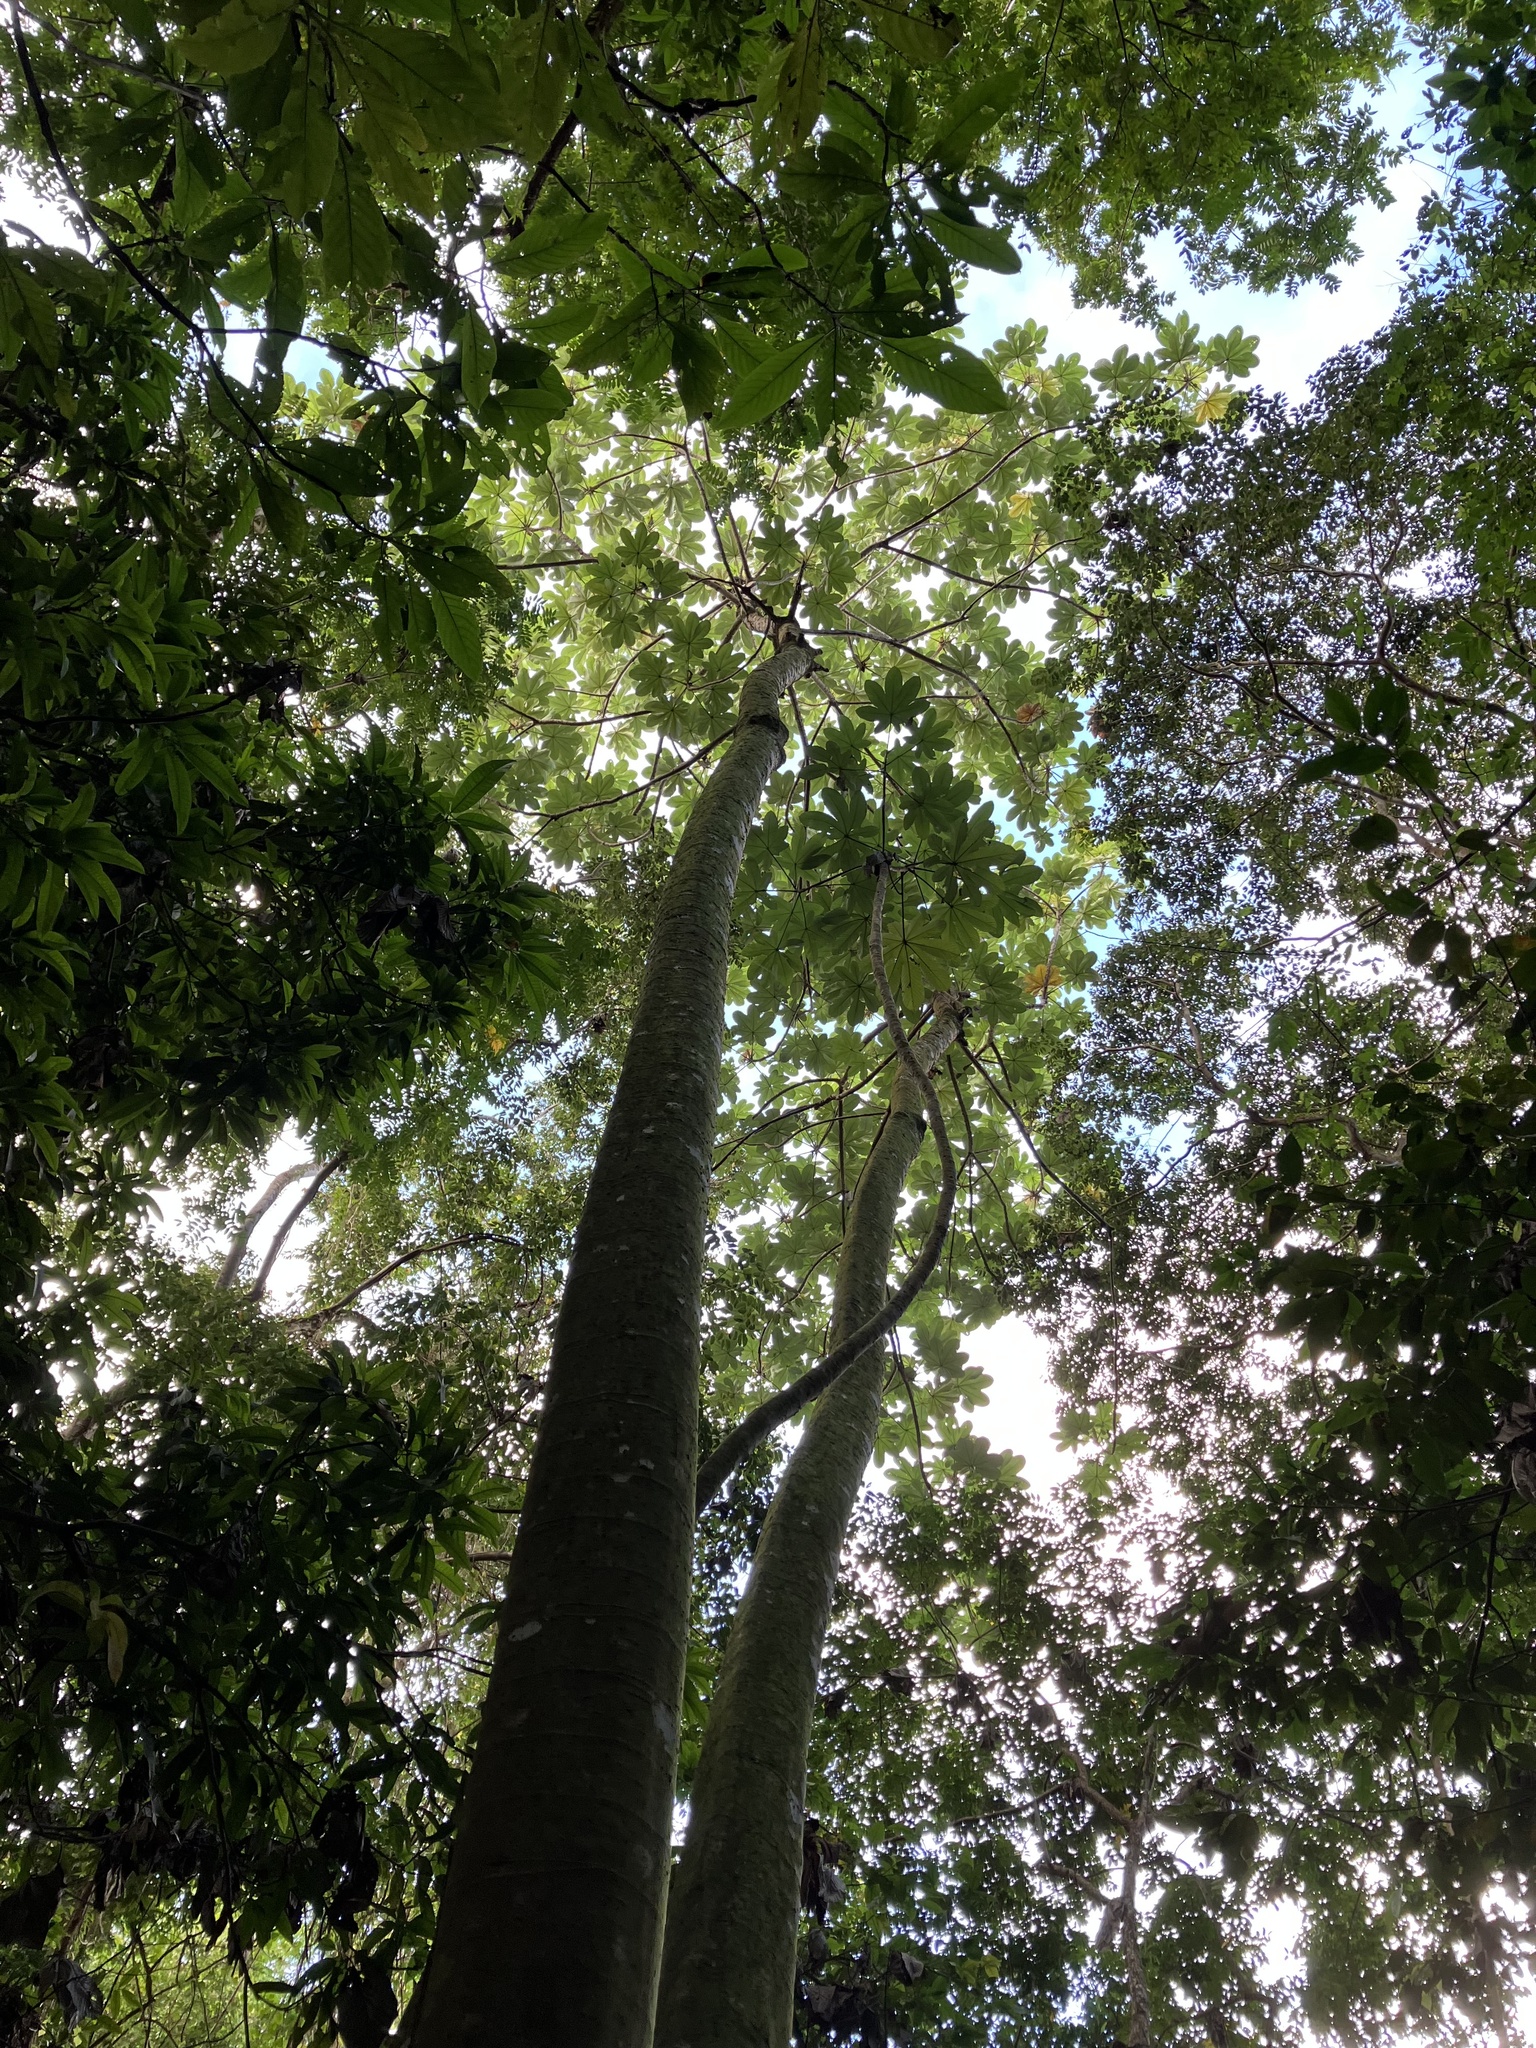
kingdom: Plantae
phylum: Tracheophyta
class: Magnoliopsida
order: Rosales
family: Urticaceae
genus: Cecropia
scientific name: Cecropia schreberiana
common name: Trumpet tree
